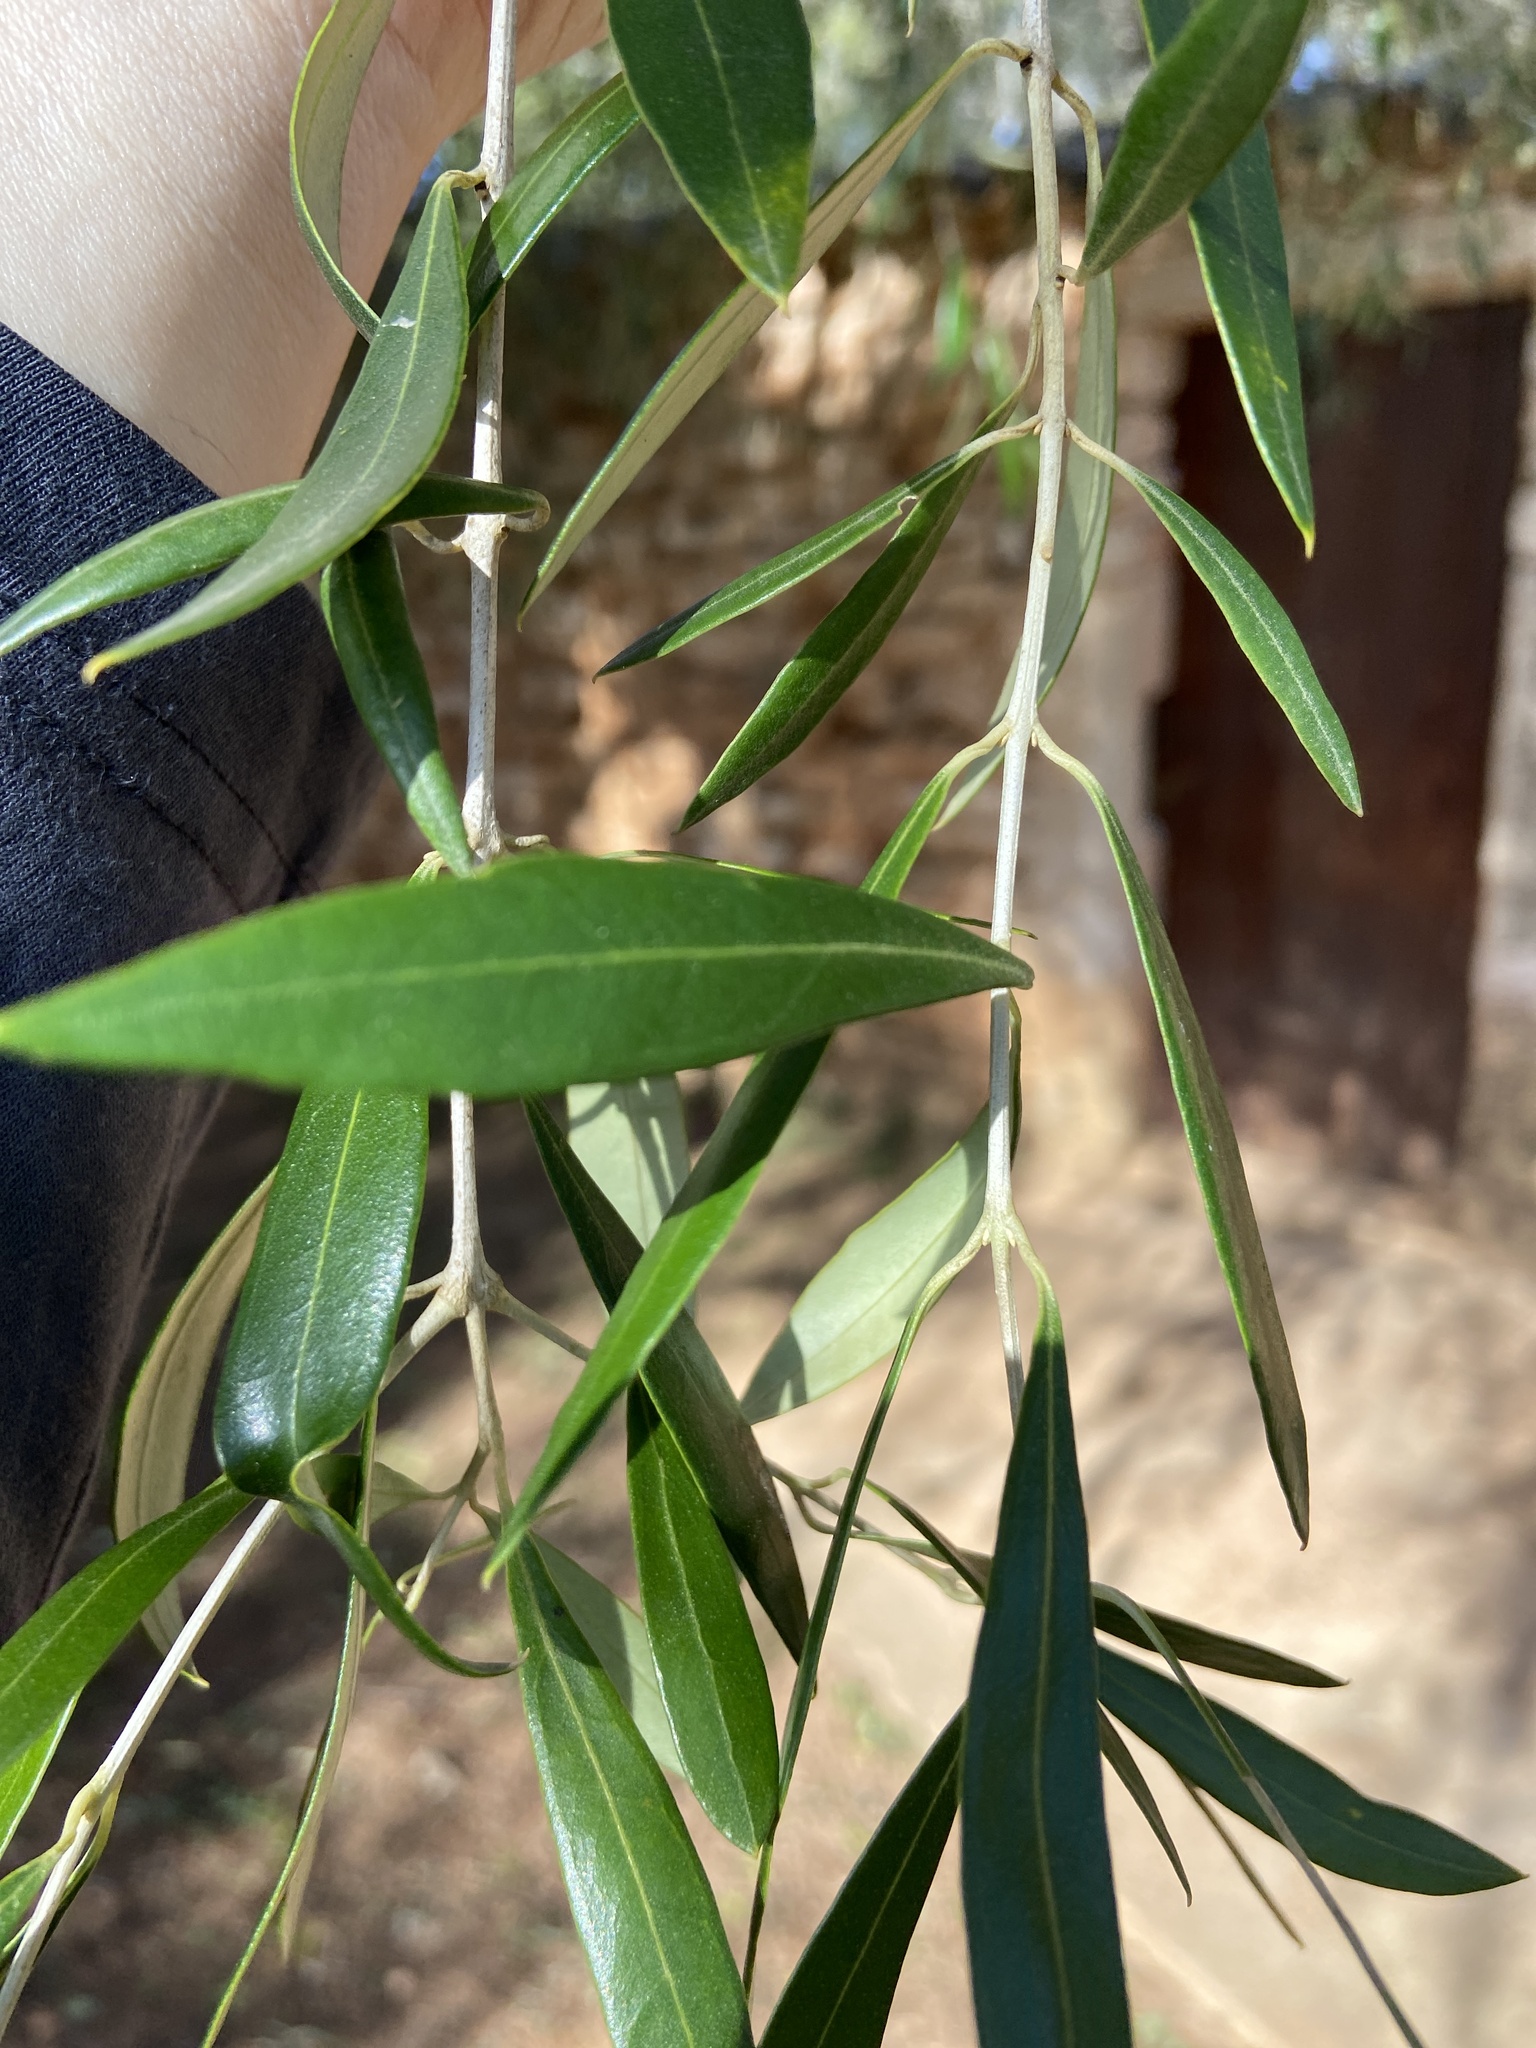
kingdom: Plantae
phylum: Tracheophyta
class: Magnoliopsida
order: Lamiales
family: Oleaceae
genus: Olea
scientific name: Olea europaea
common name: Olive
